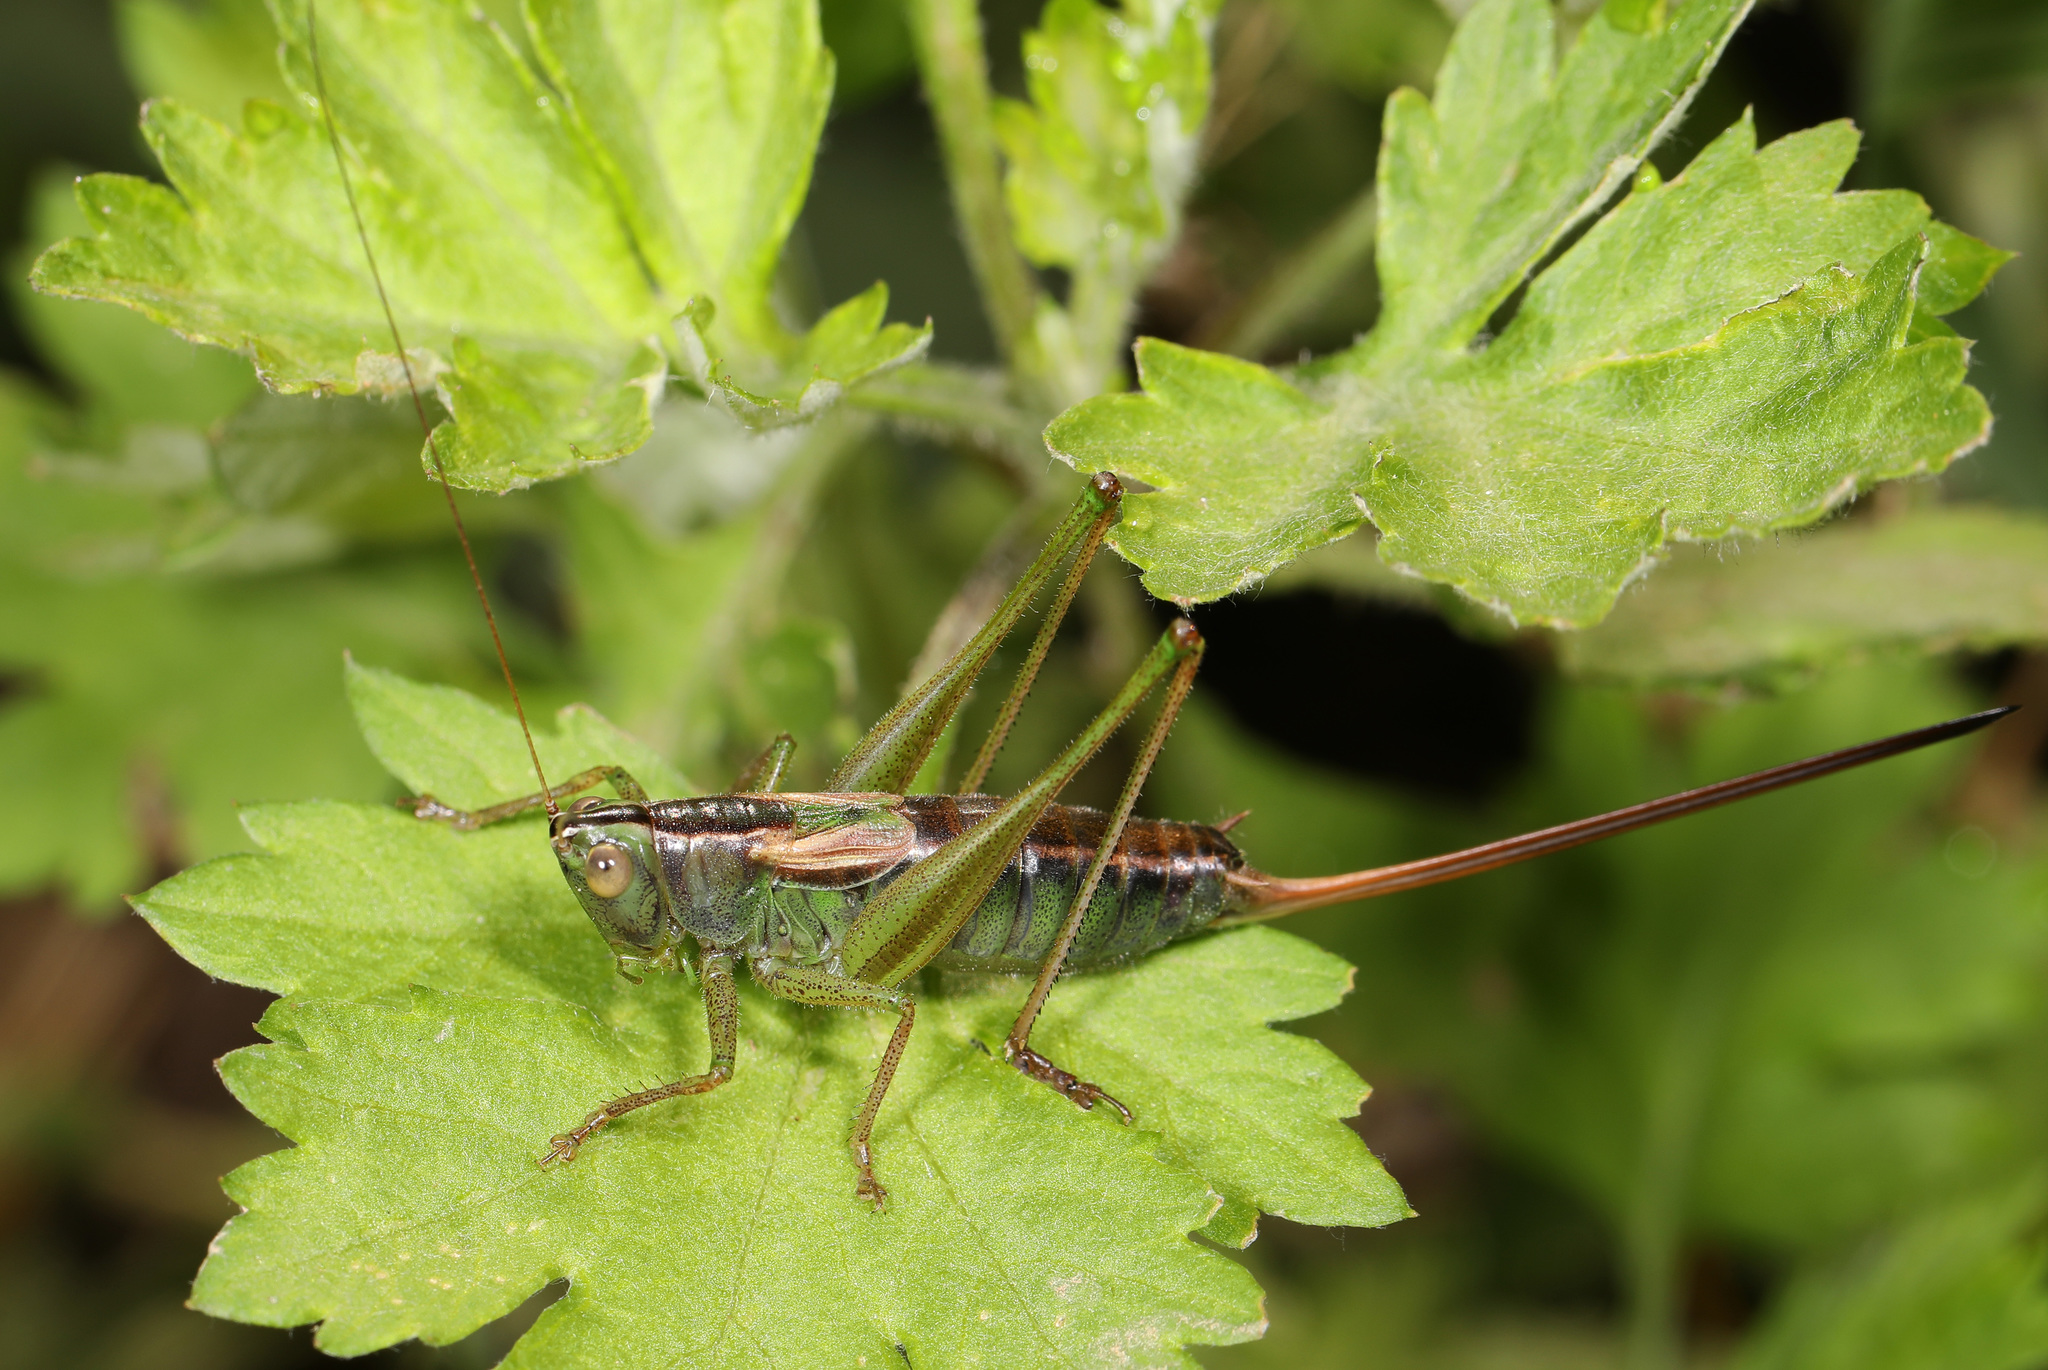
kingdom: Animalia
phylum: Arthropoda
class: Insecta
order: Orthoptera
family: Tettigoniidae
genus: Conocephalus
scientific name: Conocephalus strictus
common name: Straight-lanced katydid
